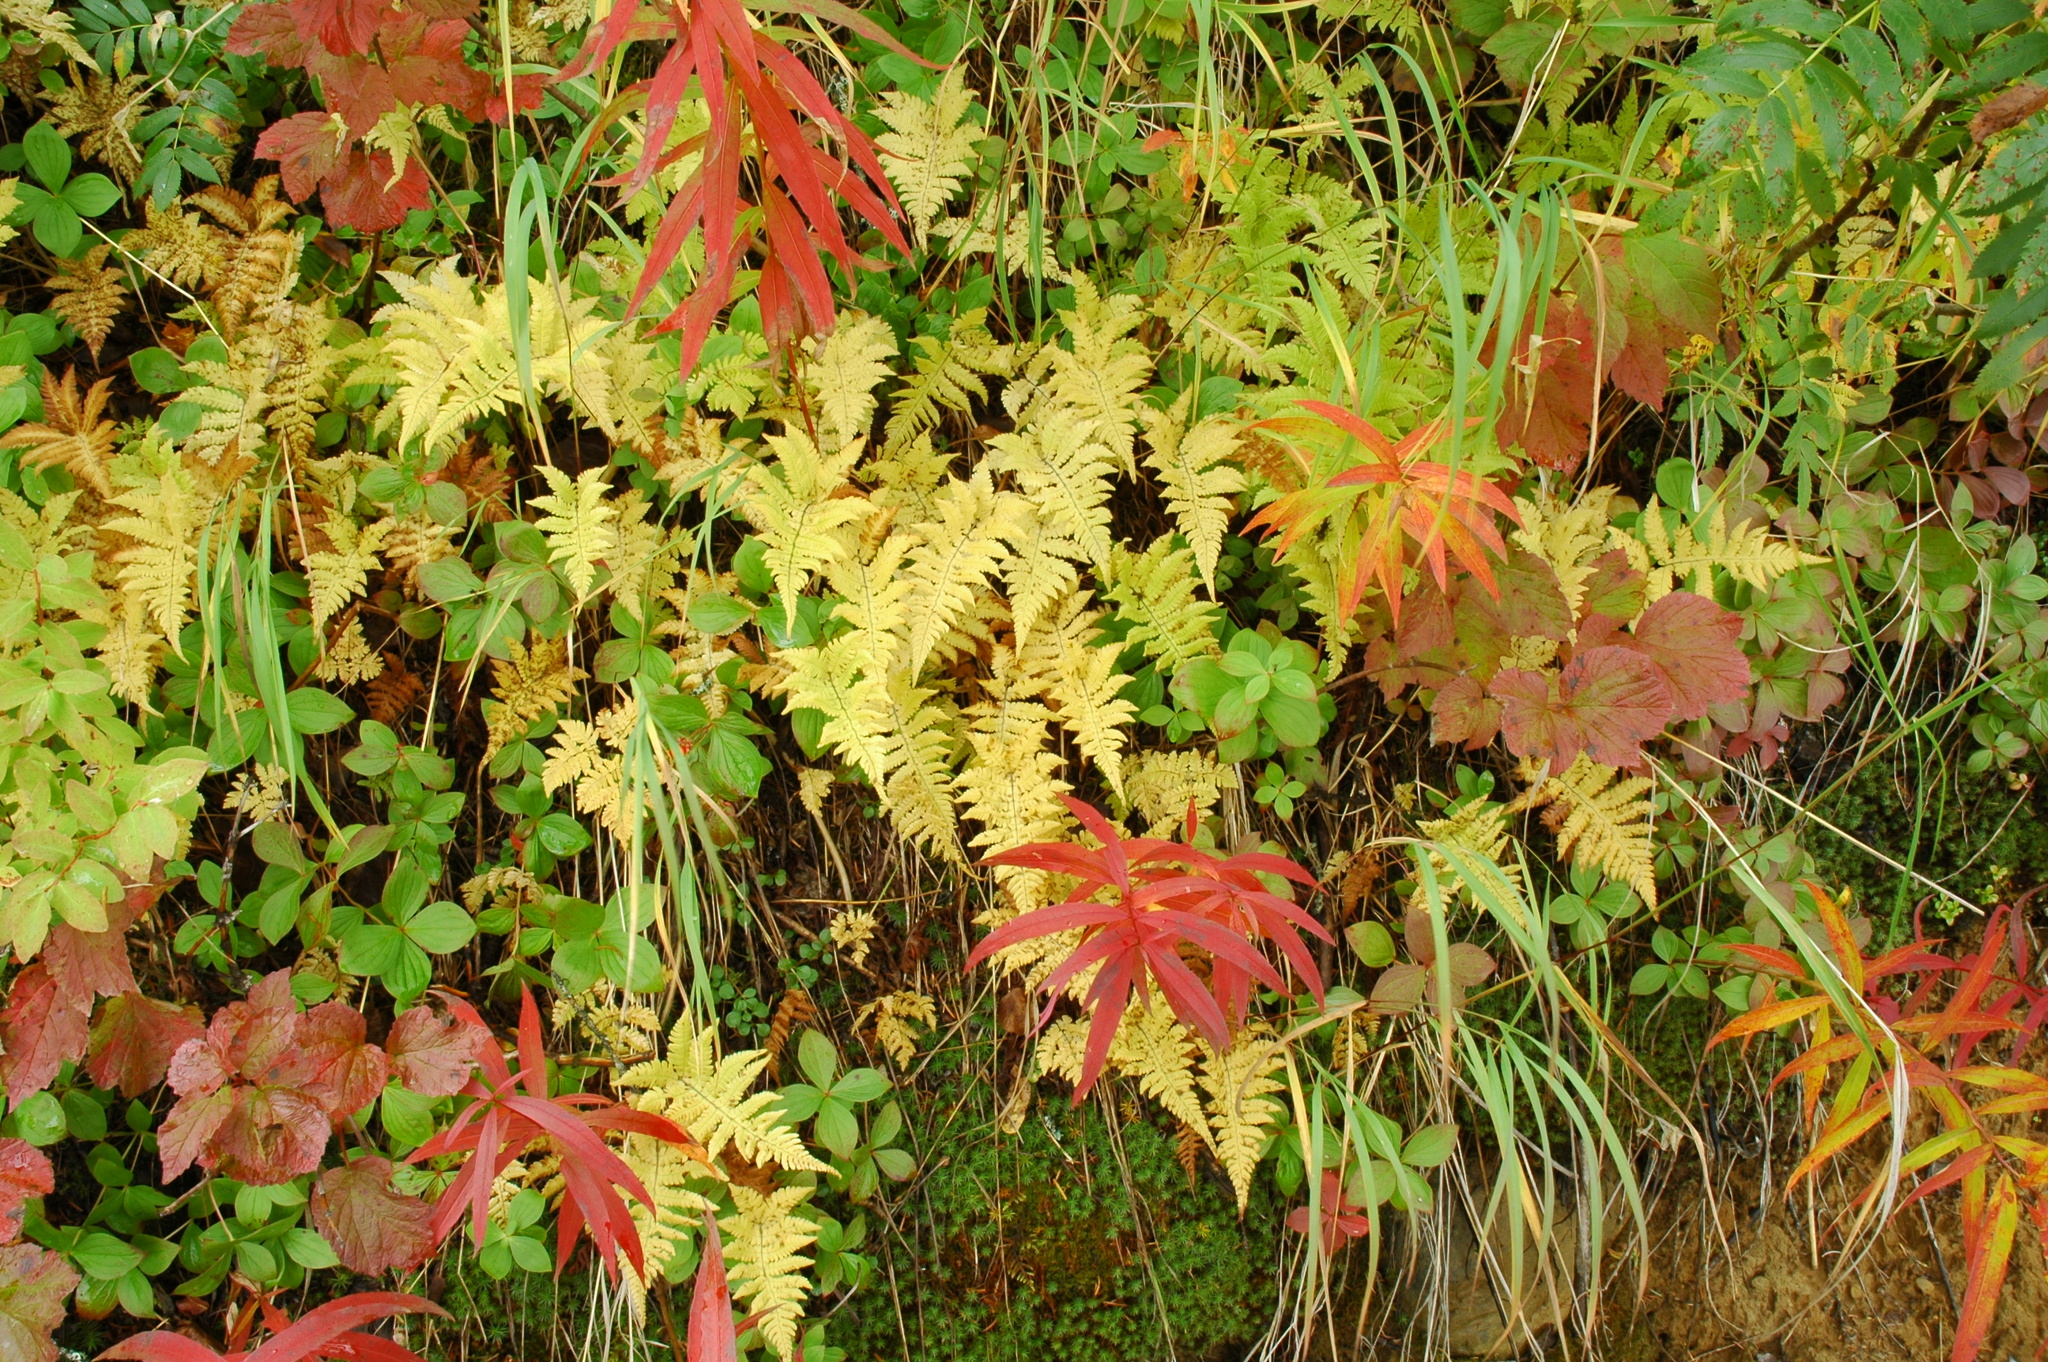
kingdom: Plantae
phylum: Tracheophyta
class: Polypodiopsida
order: Polypodiales
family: Thelypteridaceae
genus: Phegopteris
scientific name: Phegopteris connectilis
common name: Beech fern
